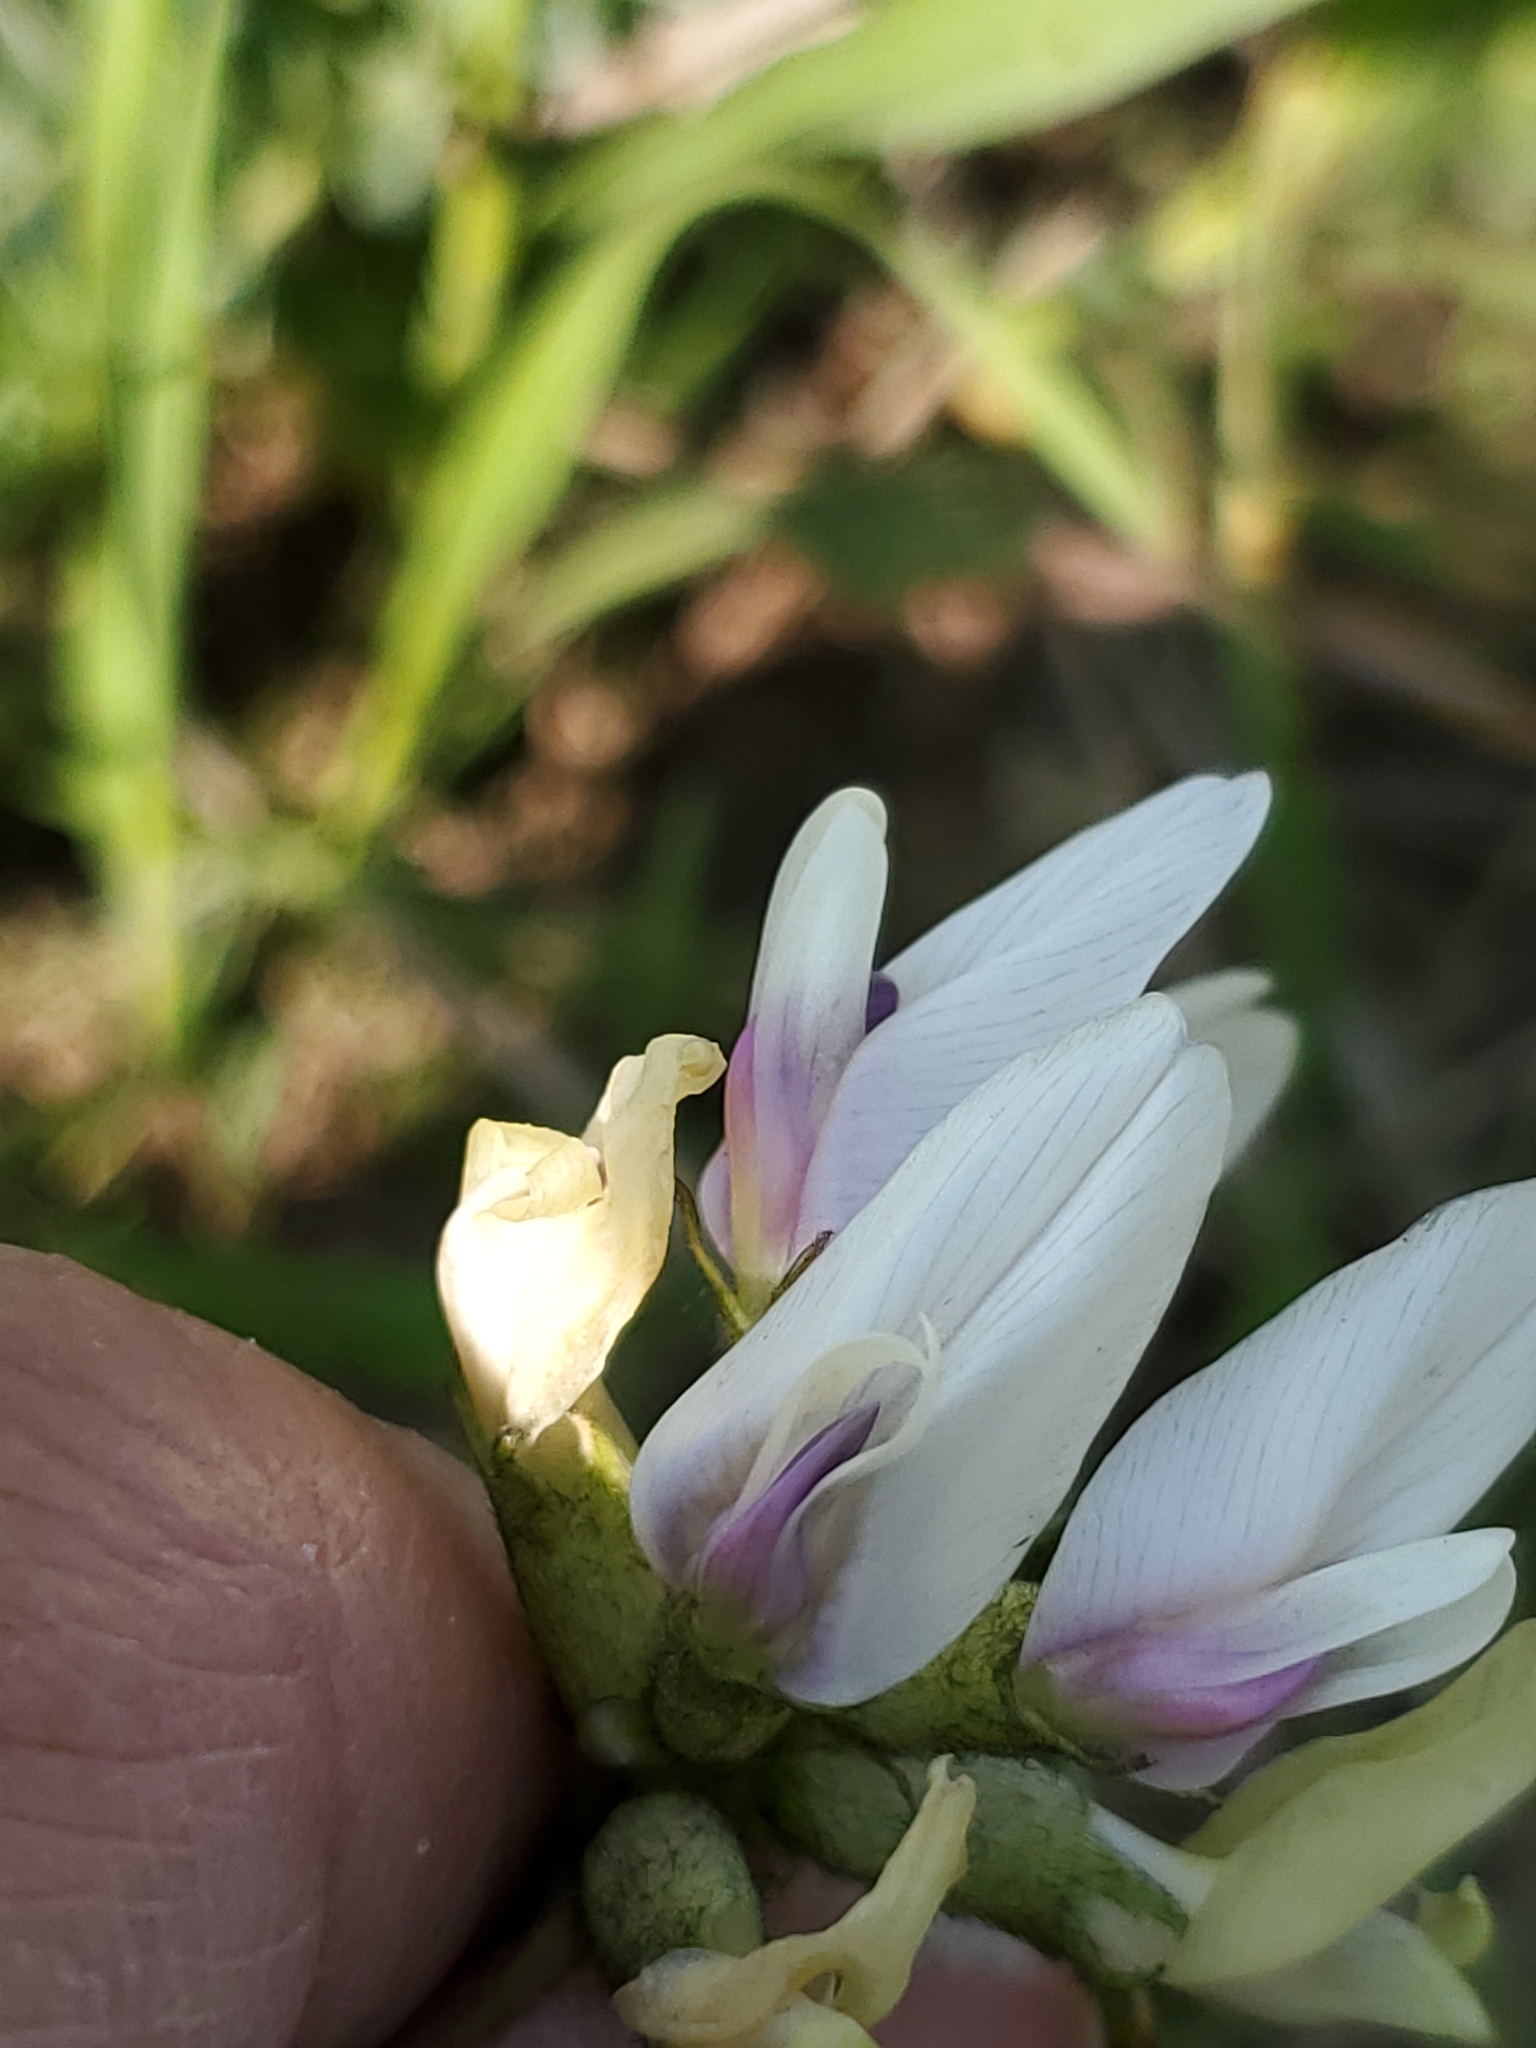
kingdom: Plantae
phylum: Tracheophyta
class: Magnoliopsida
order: Fabales
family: Fabaceae
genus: Astragalus
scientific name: Astragalus crassicarpus
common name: Ground-plum milk-vetch
